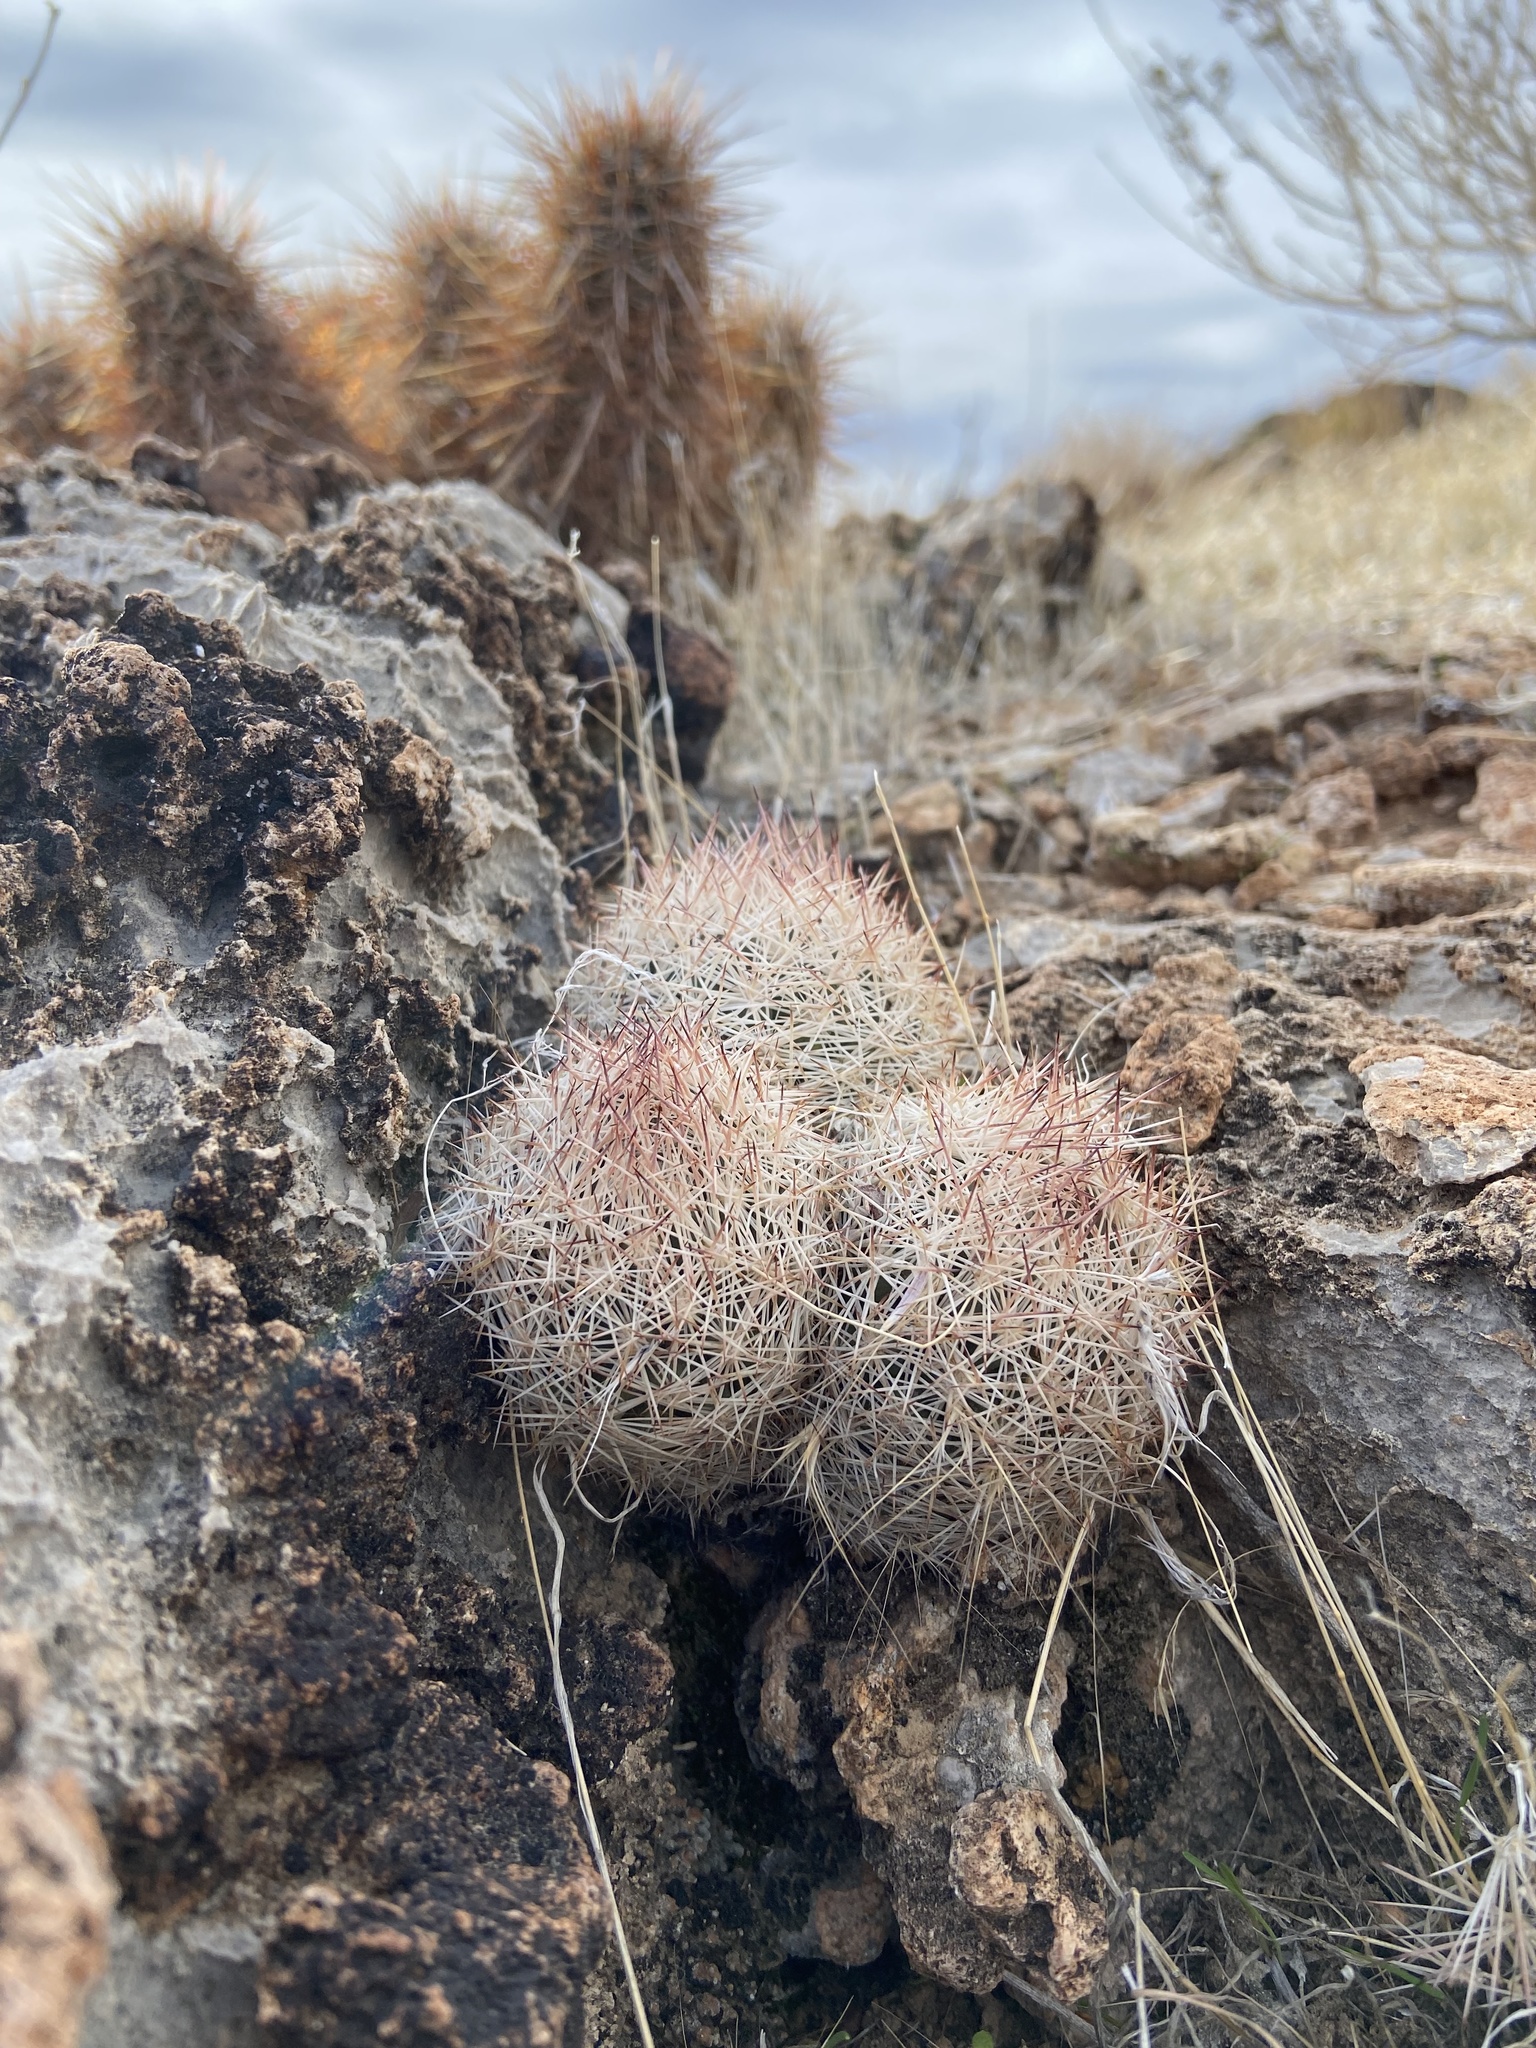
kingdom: Plantae
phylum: Tracheophyta
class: Magnoliopsida
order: Caryophyllales
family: Cactaceae
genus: Pelecyphora
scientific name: Pelecyphora dasyacantha
